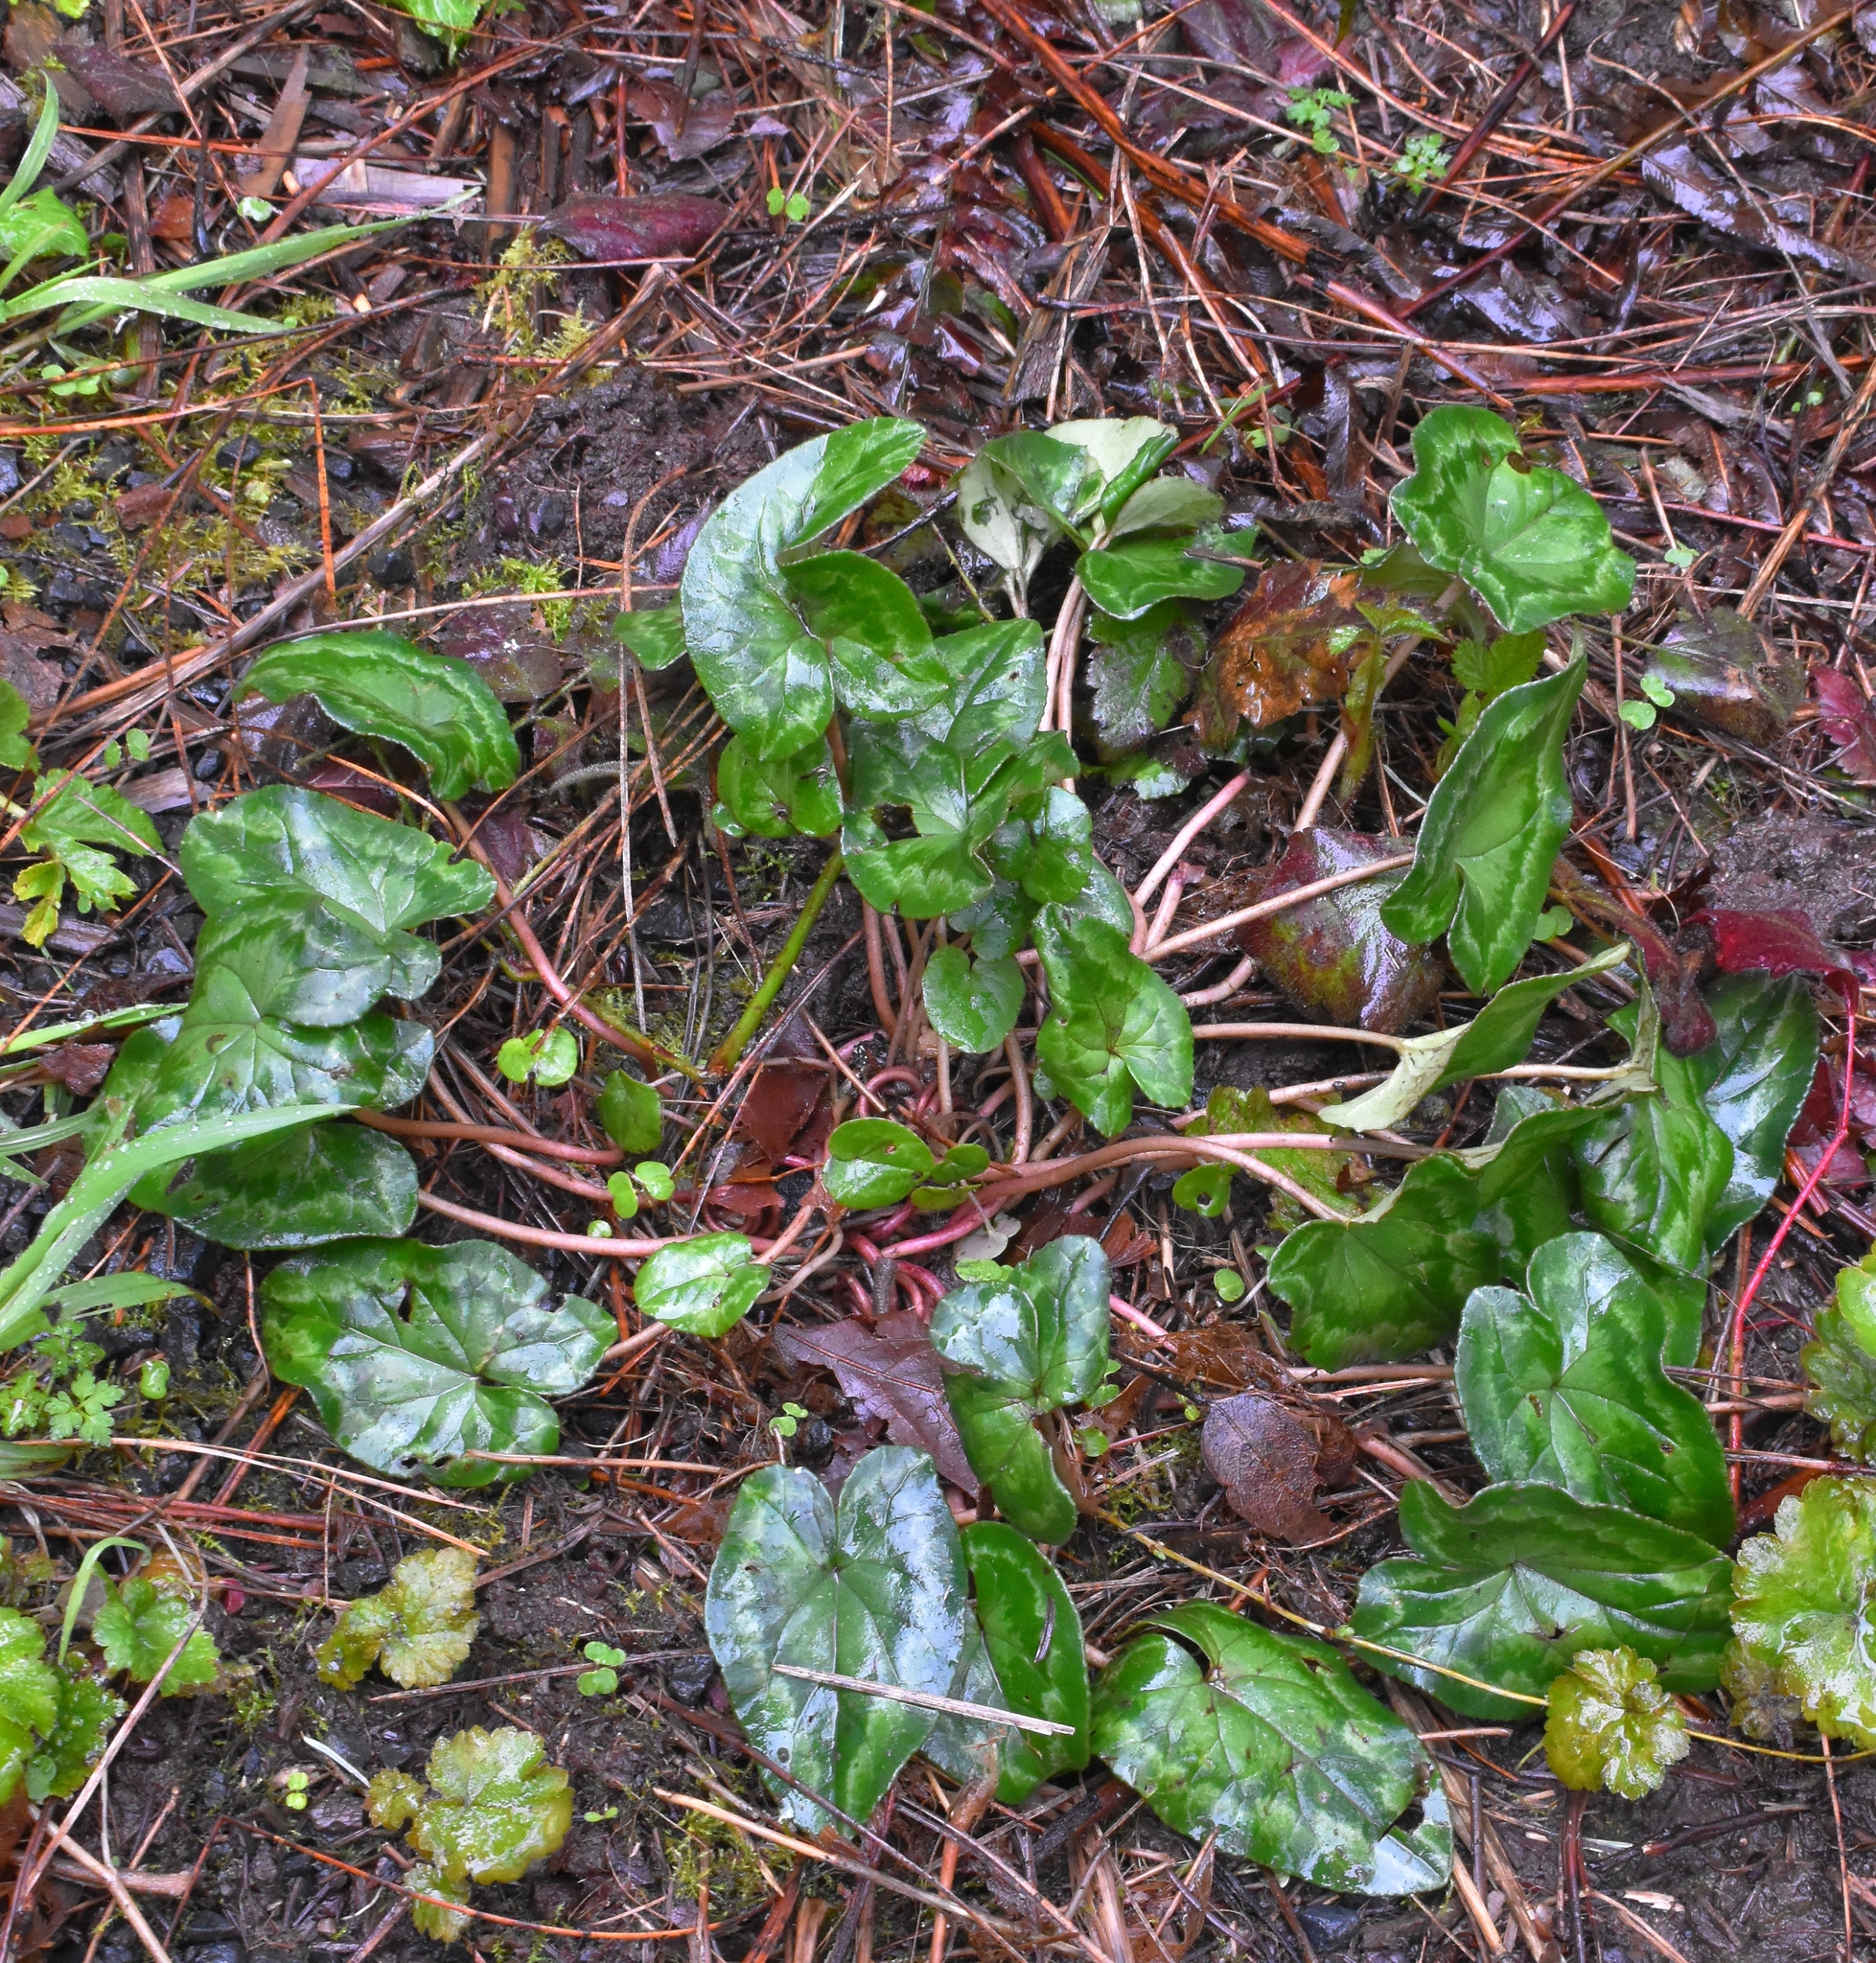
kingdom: Plantae
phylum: Tracheophyta
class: Magnoliopsida
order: Ericales
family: Primulaceae
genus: Cyclamen
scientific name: Cyclamen hederifolium
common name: Sowbread
